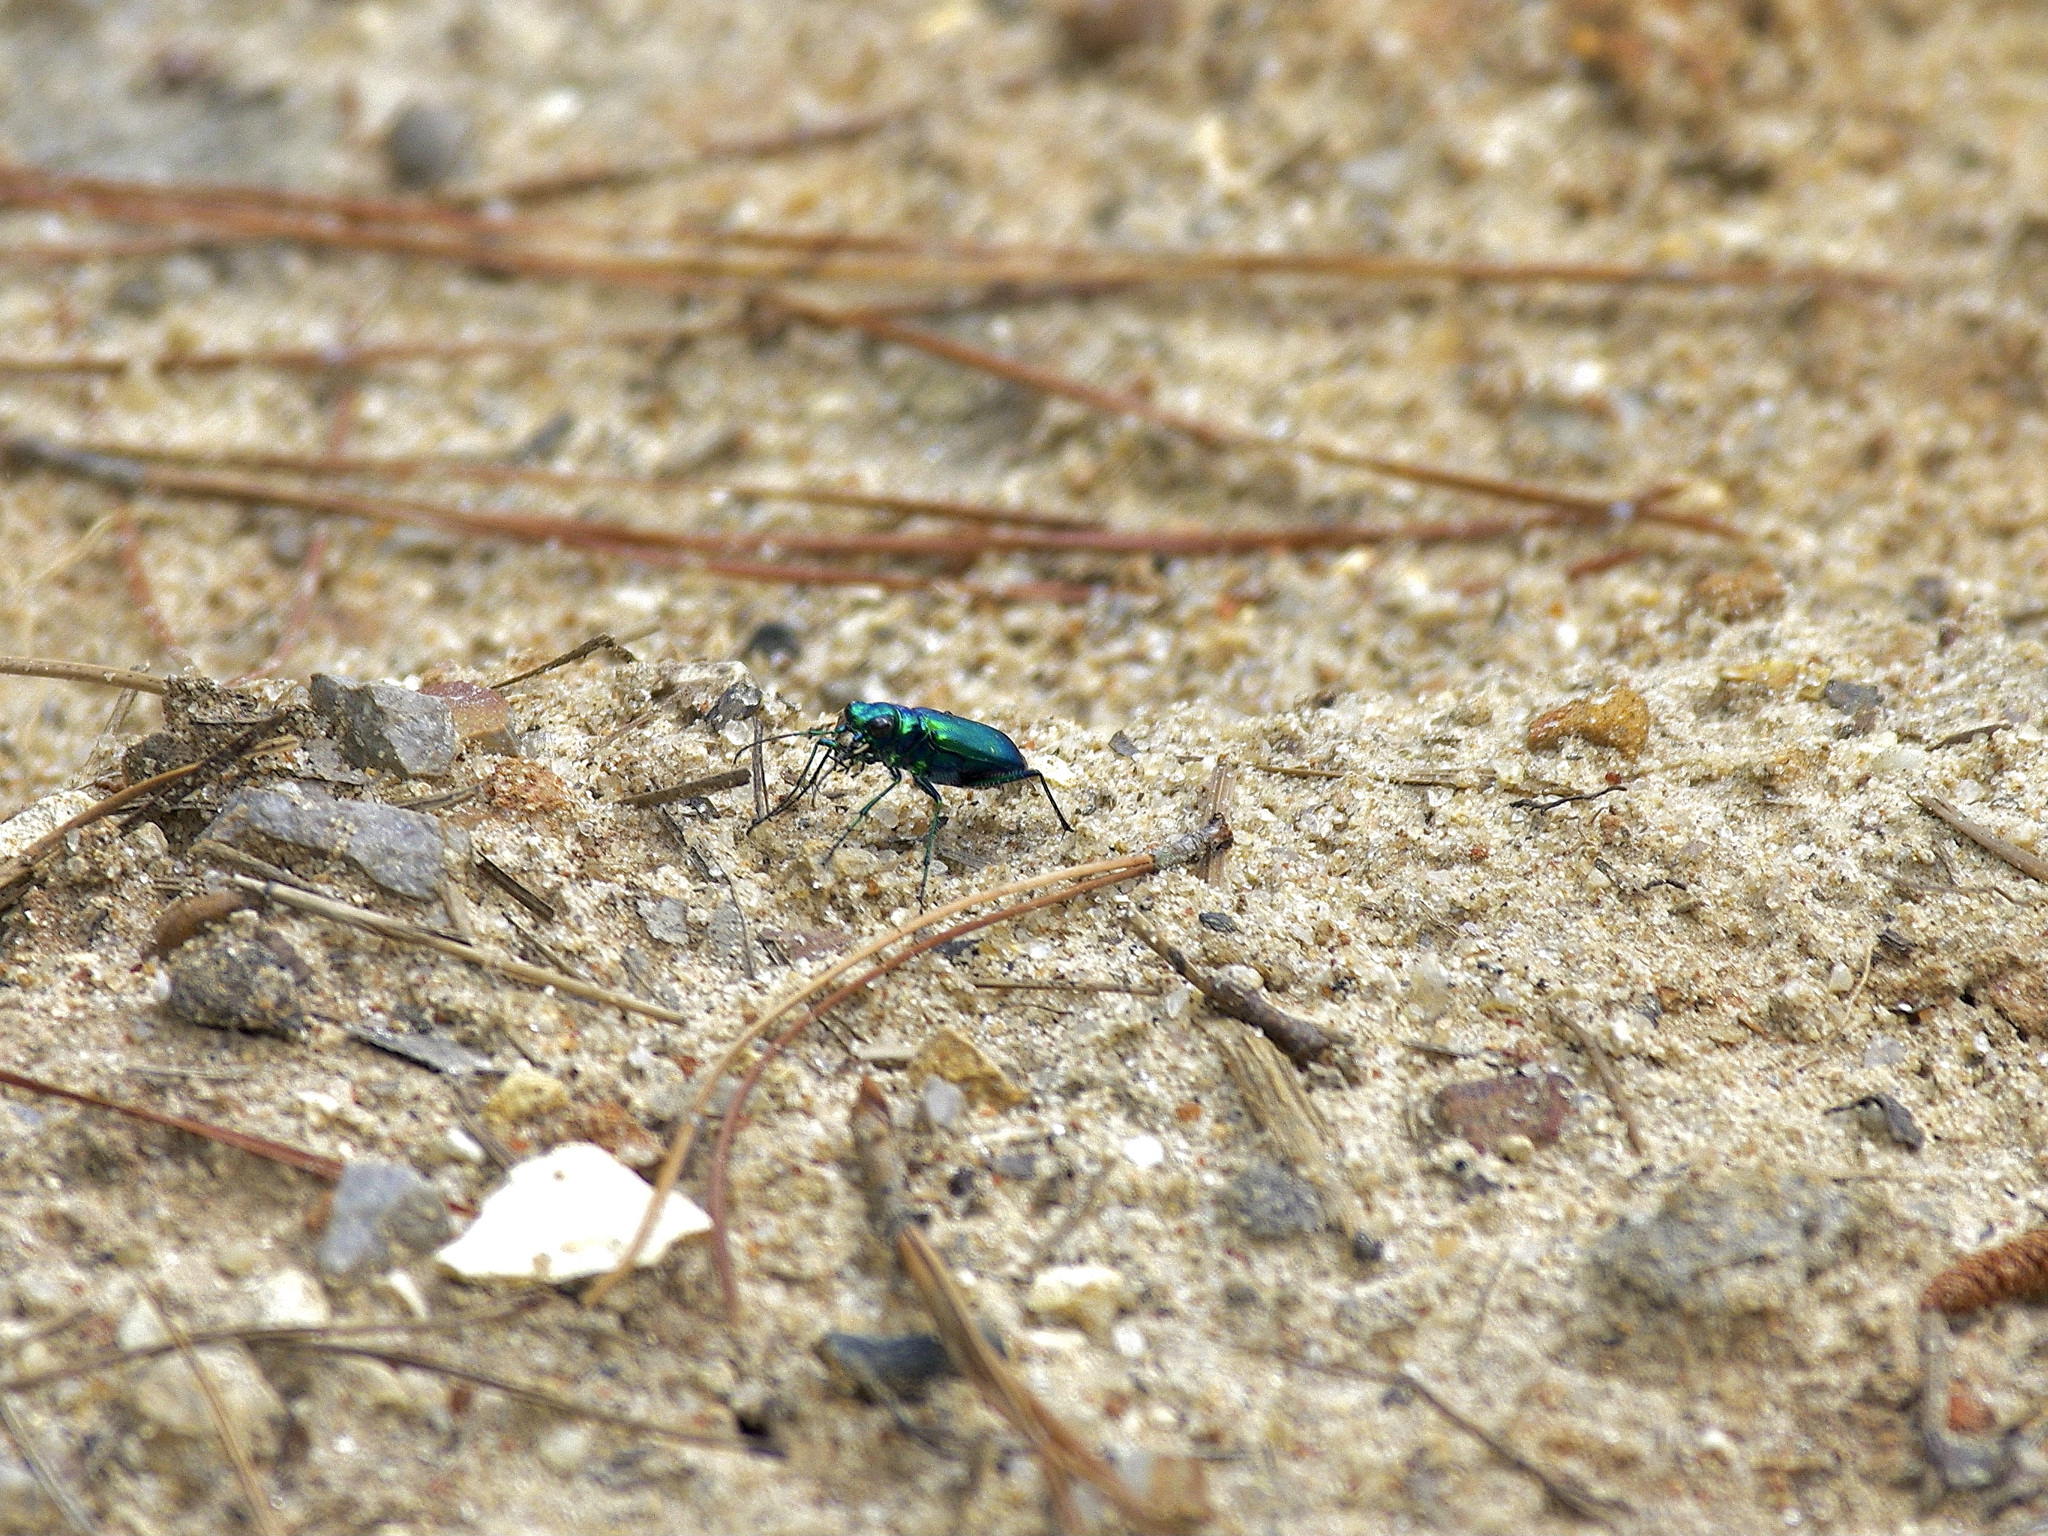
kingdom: Animalia
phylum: Arthropoda
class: Insecta
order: Coleoptera
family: Carabidae
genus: Cicindela
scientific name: Cicindela sexguttata
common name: Six-spotted tiger beetle
